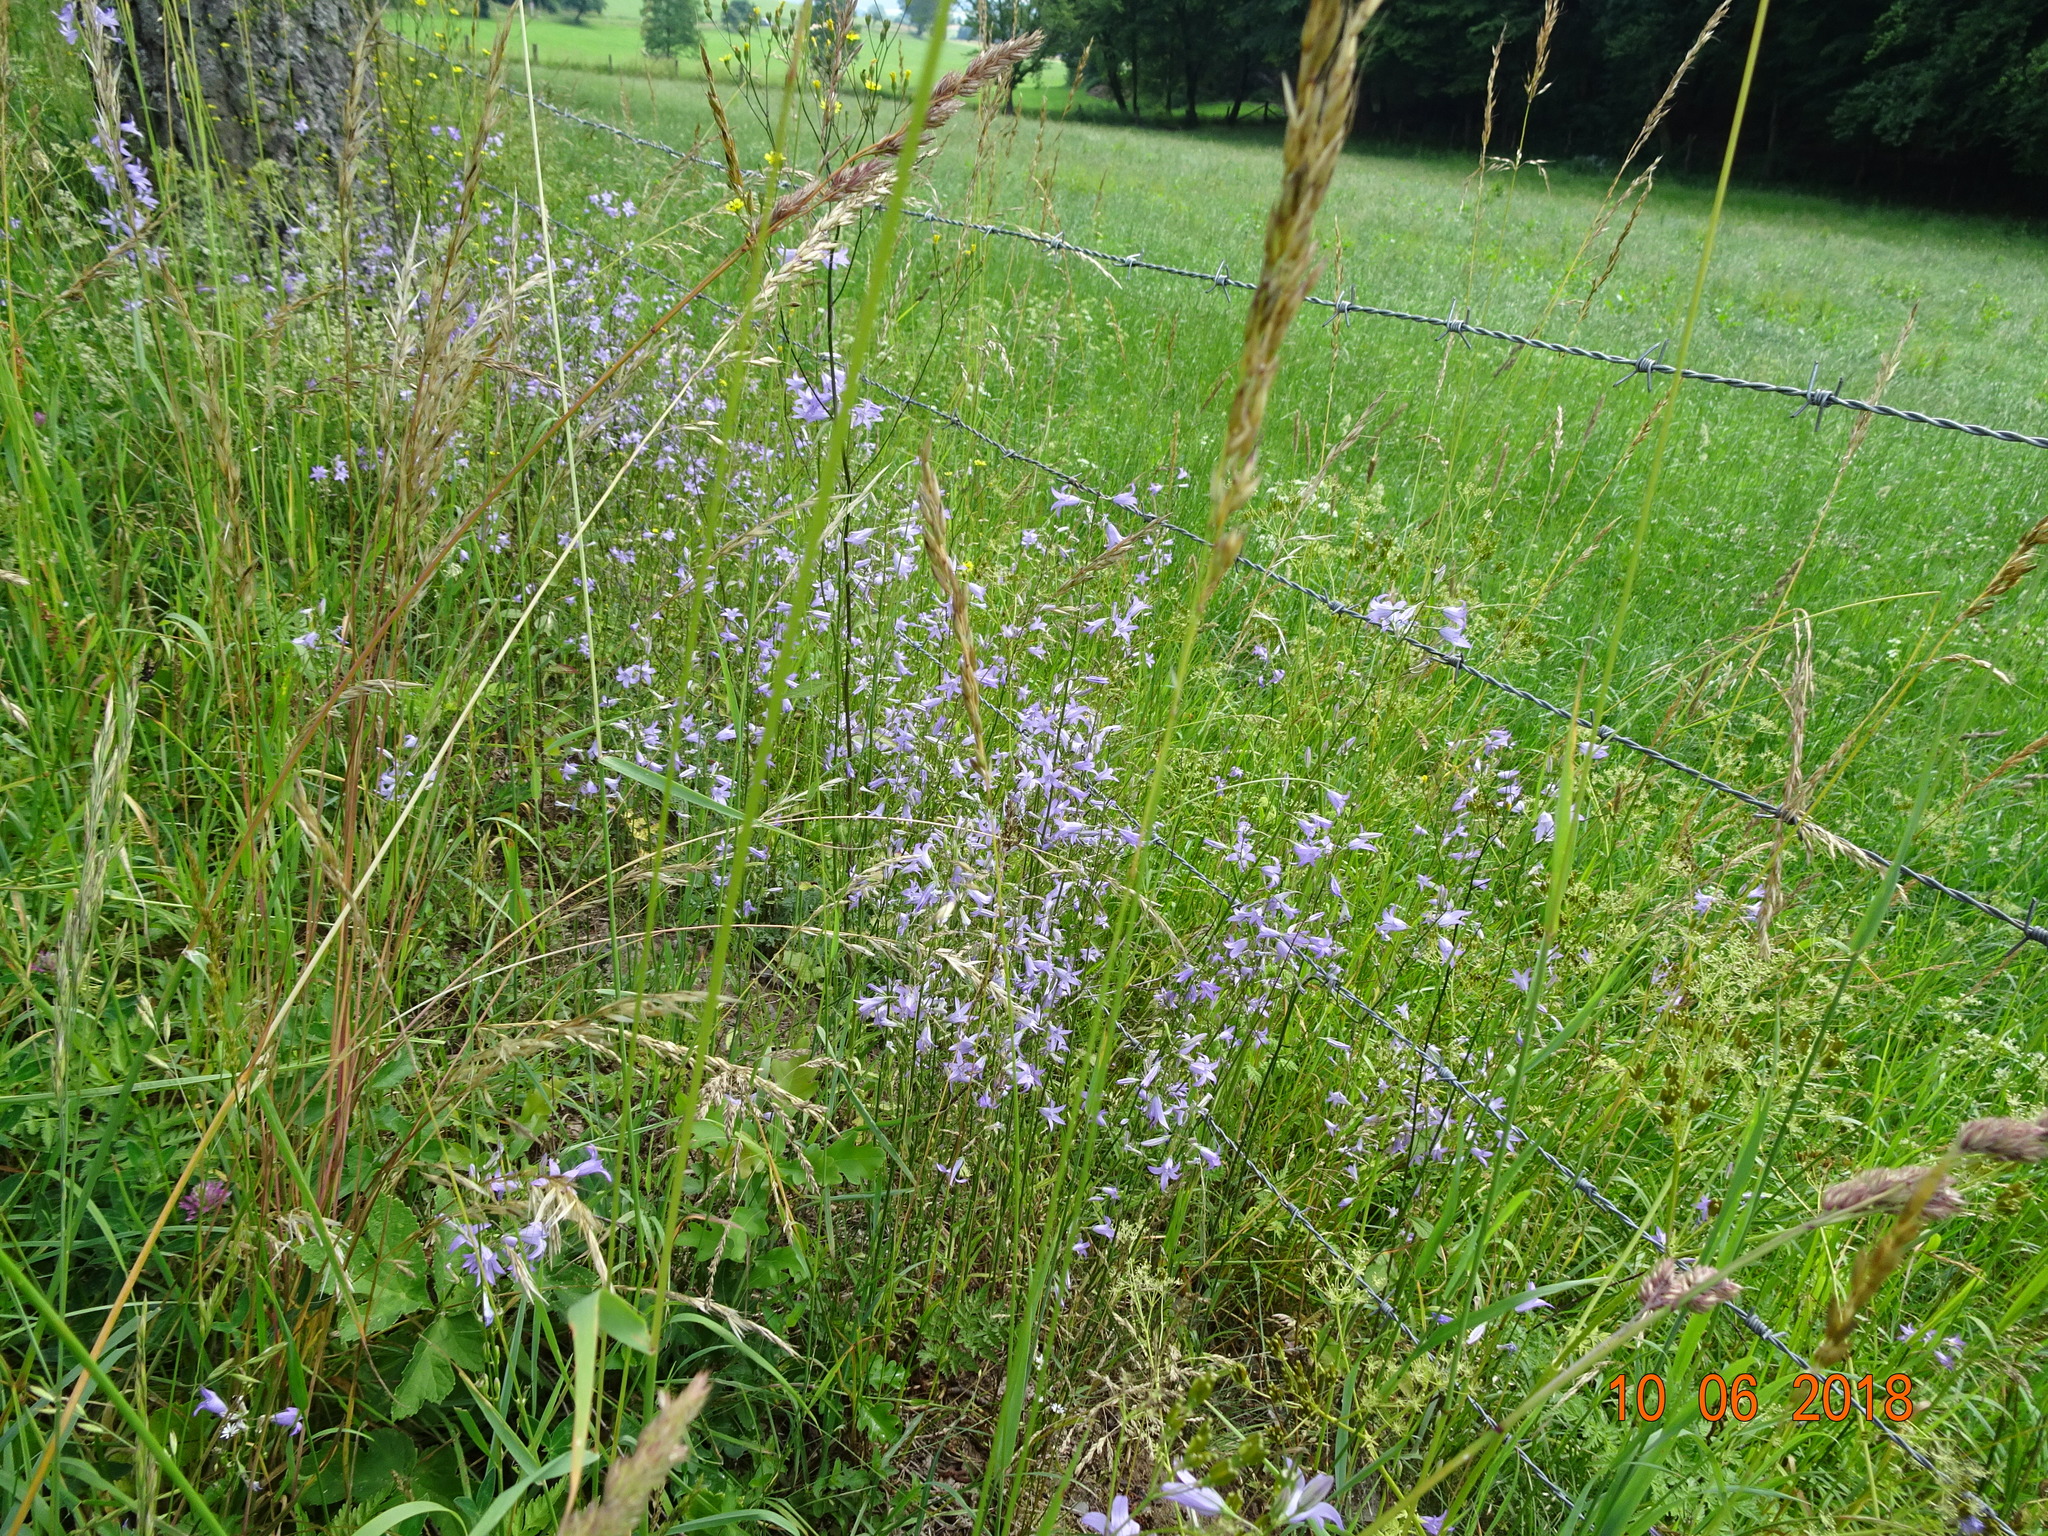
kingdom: Plantae
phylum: Tracheophyta
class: Magnoliopsida
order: Asterales
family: Campanulaceae
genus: Campanula
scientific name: Campanula rapunculus
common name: Rampion bellflower
